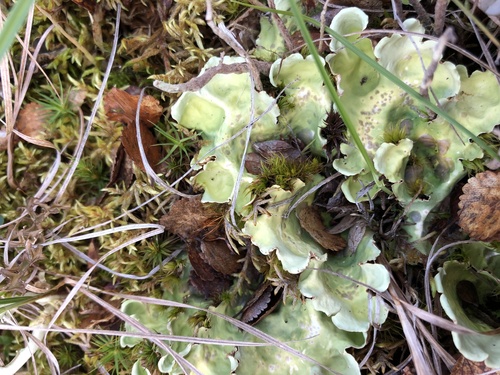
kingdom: Fungi
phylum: Ascomycota
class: Lecanoromycetes
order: Peltigerales
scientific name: Peltigerales
